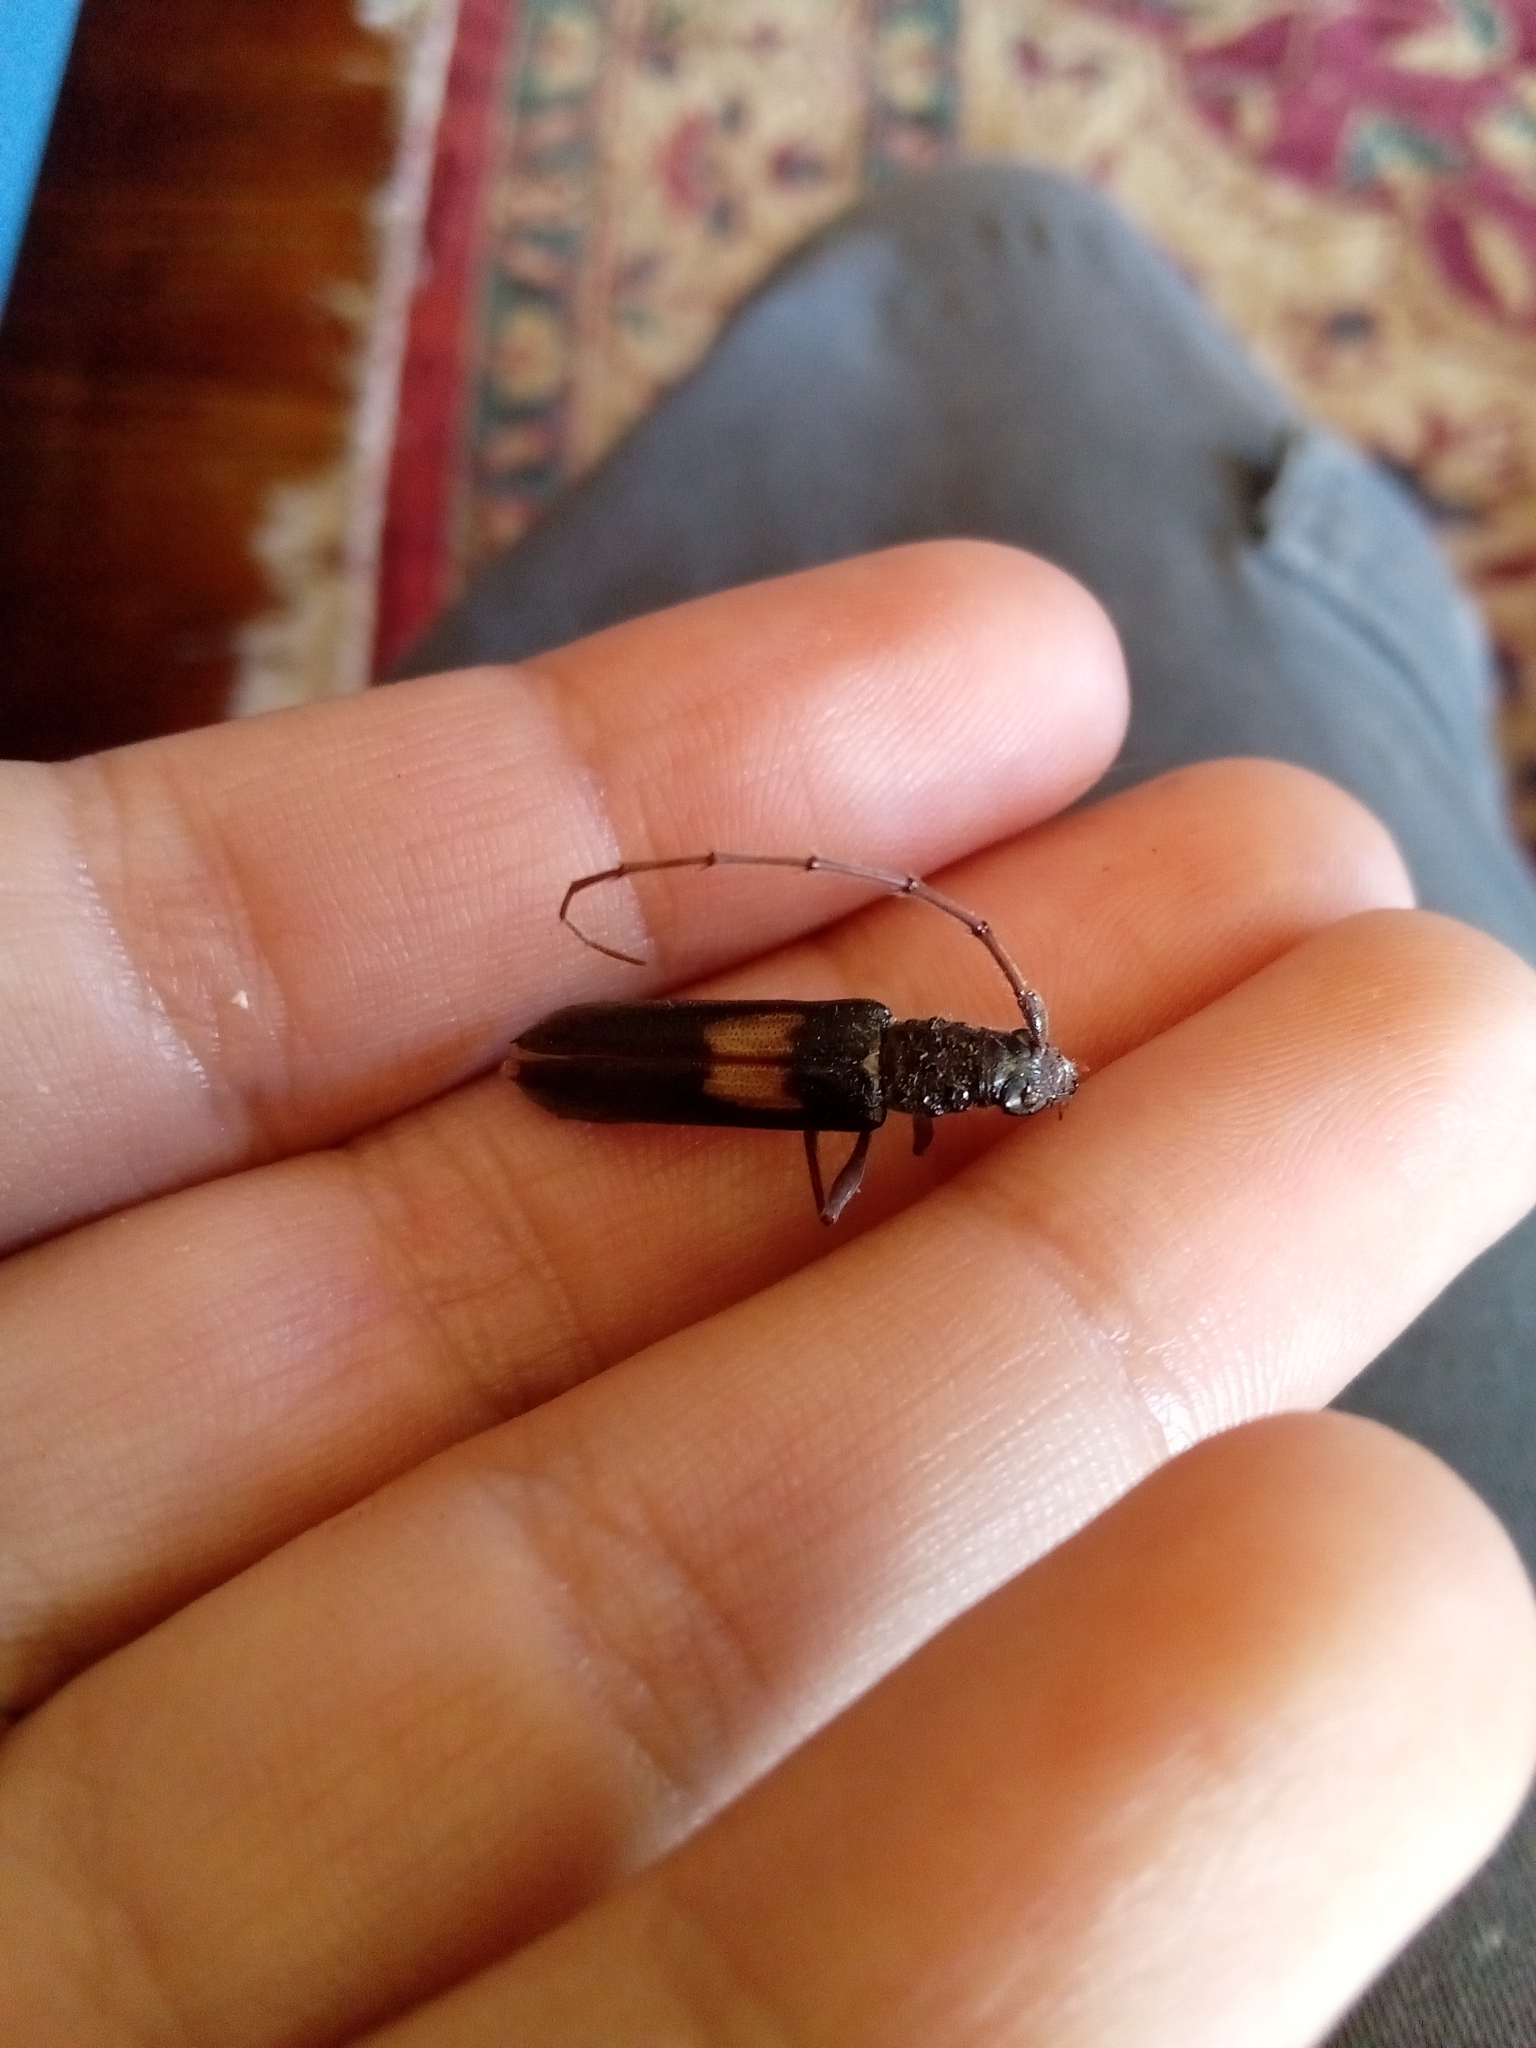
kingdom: Animalia
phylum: Arthropoda
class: Insecta
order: Coleoptera
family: Cerambycidae
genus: Epithora
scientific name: Epithora dorsalis
